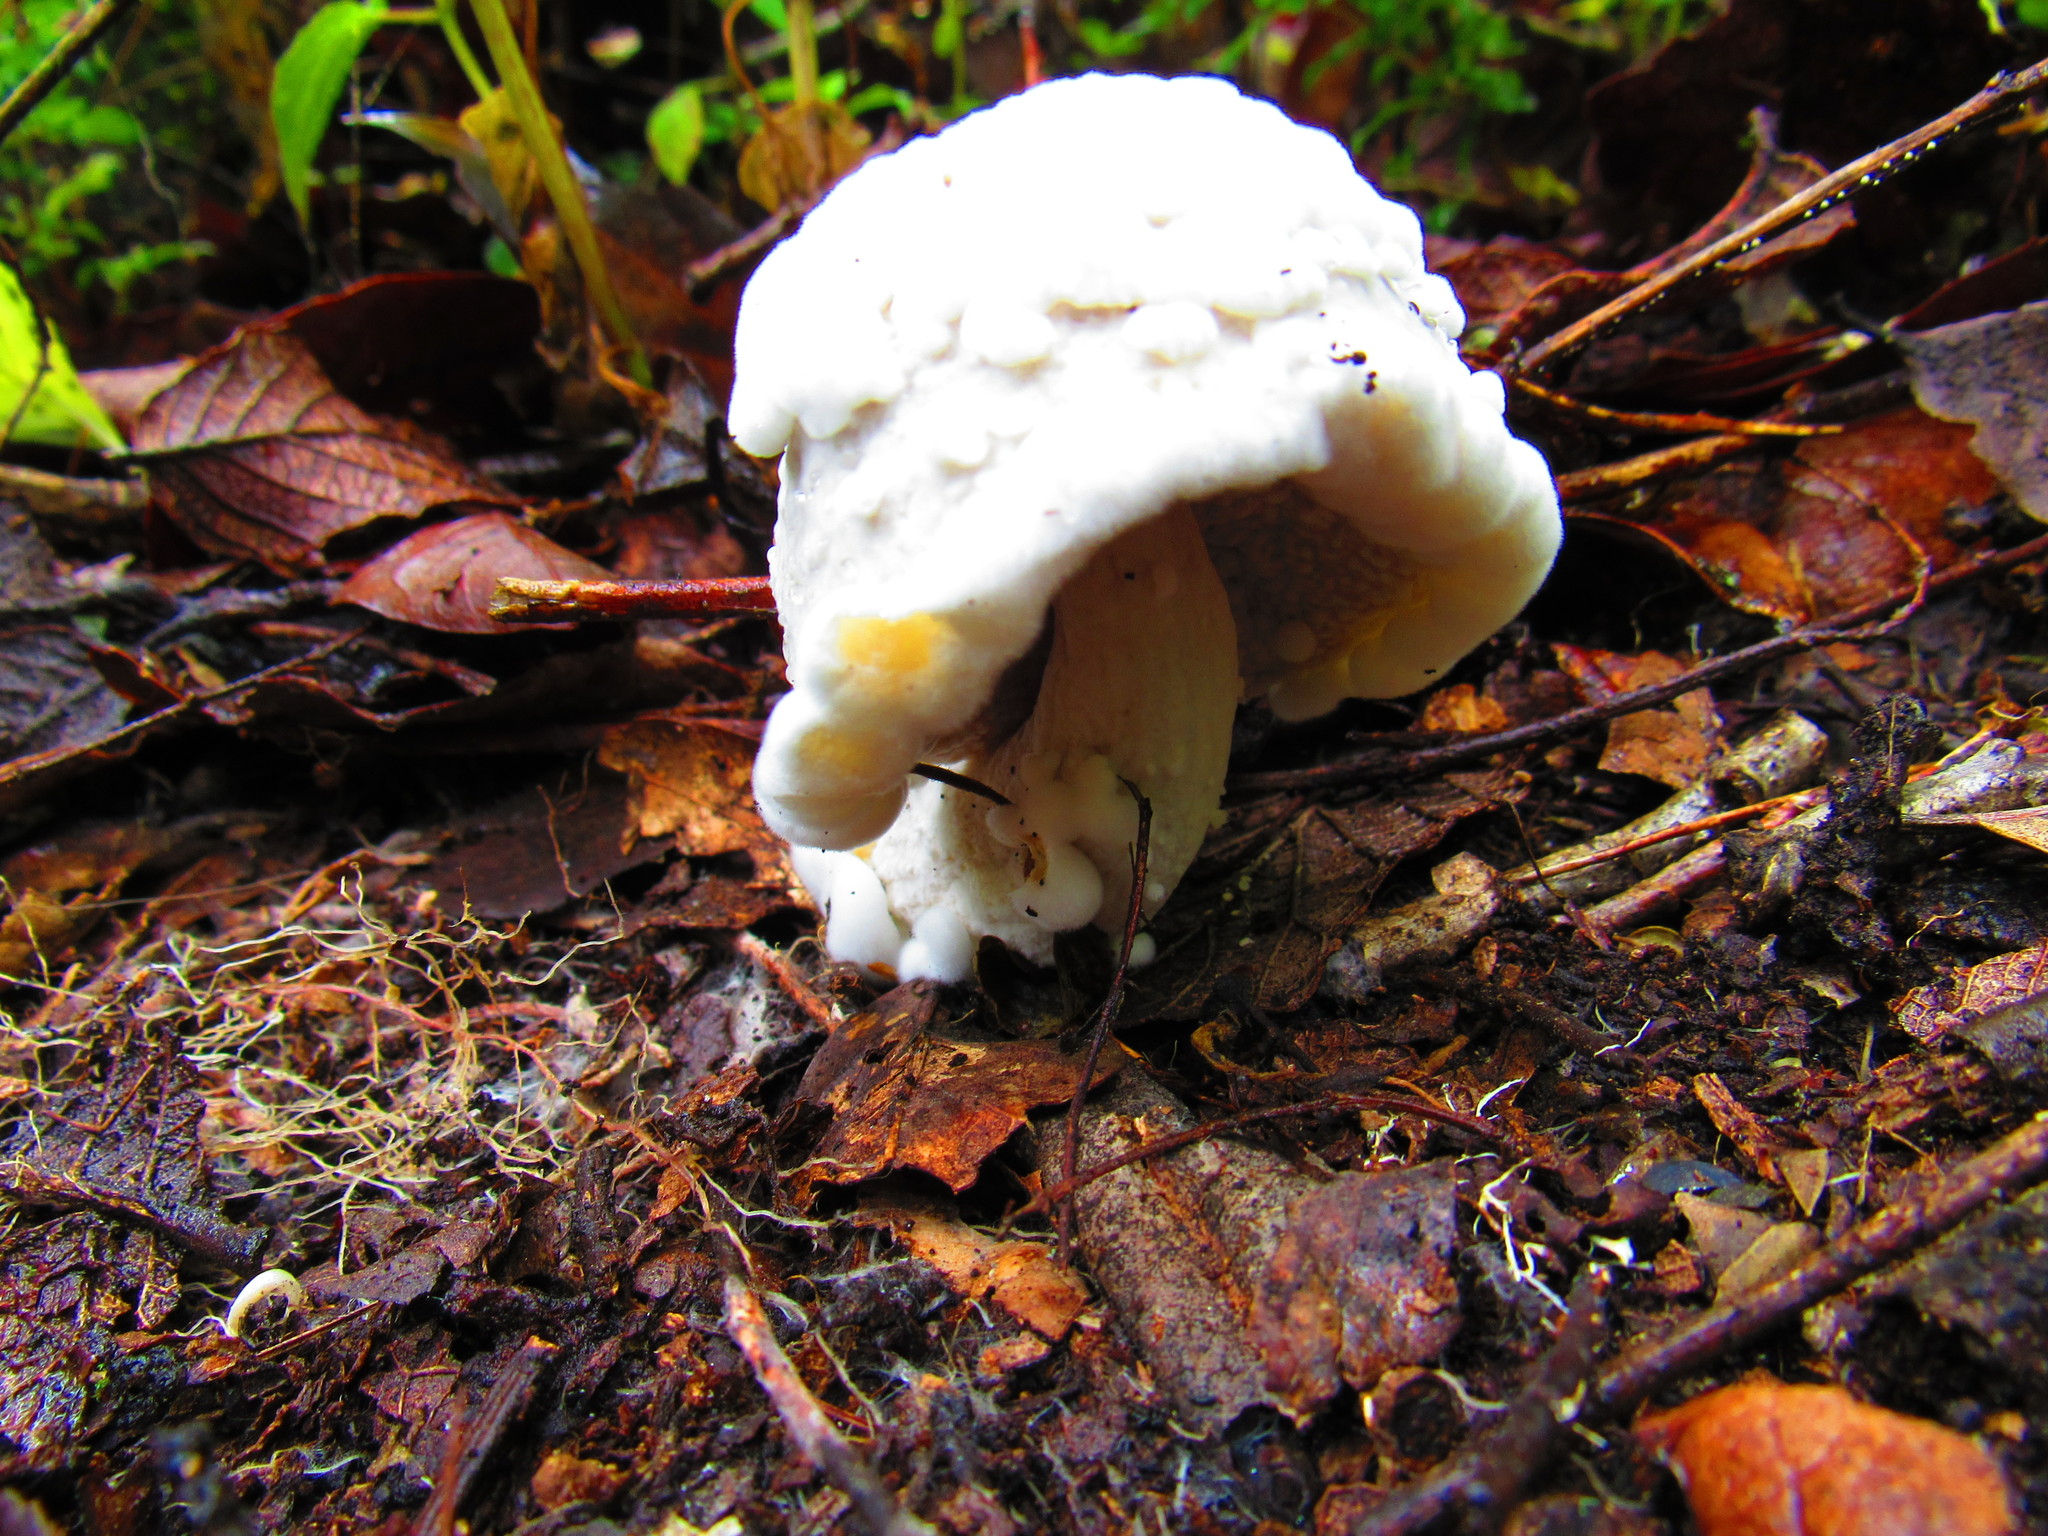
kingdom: Fungi
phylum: Ascomycota
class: Sordariomycetes
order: Hypocreales
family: Hypocreaceae
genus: Hypomyces
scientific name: Hypomyces chrysospermus
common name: Bolete mould
